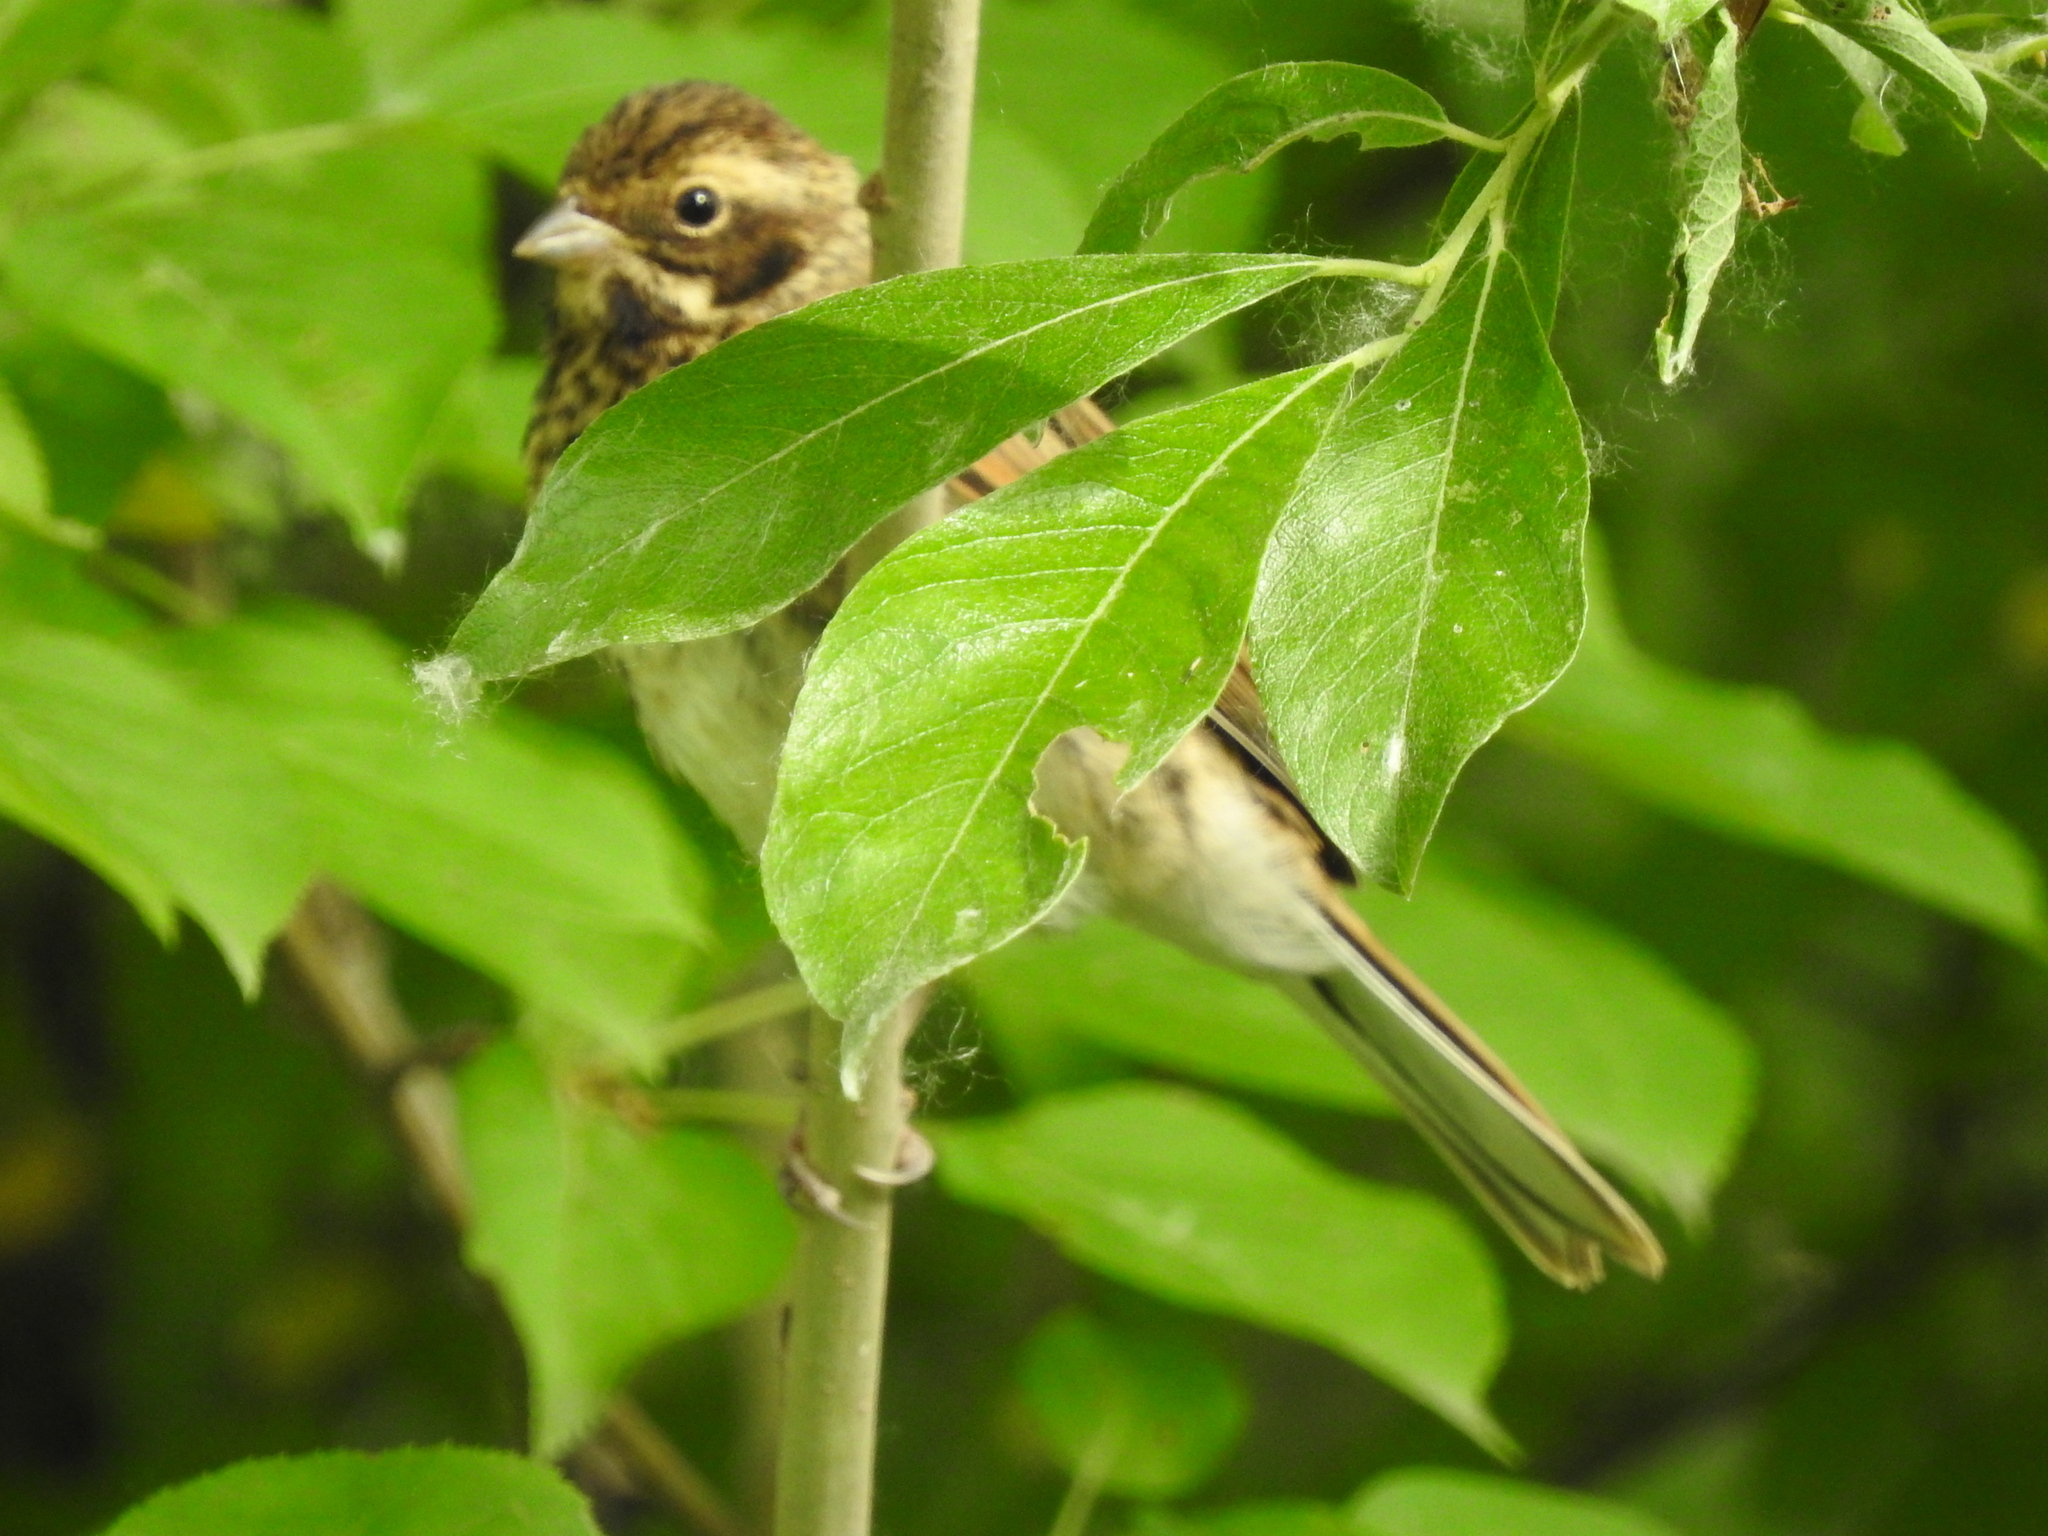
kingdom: Animalia
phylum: Chordata
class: Aves
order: Passeriformes
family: Emberizidae
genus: Emberiza
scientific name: Emberiza schoeniclus
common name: Reed bunting
